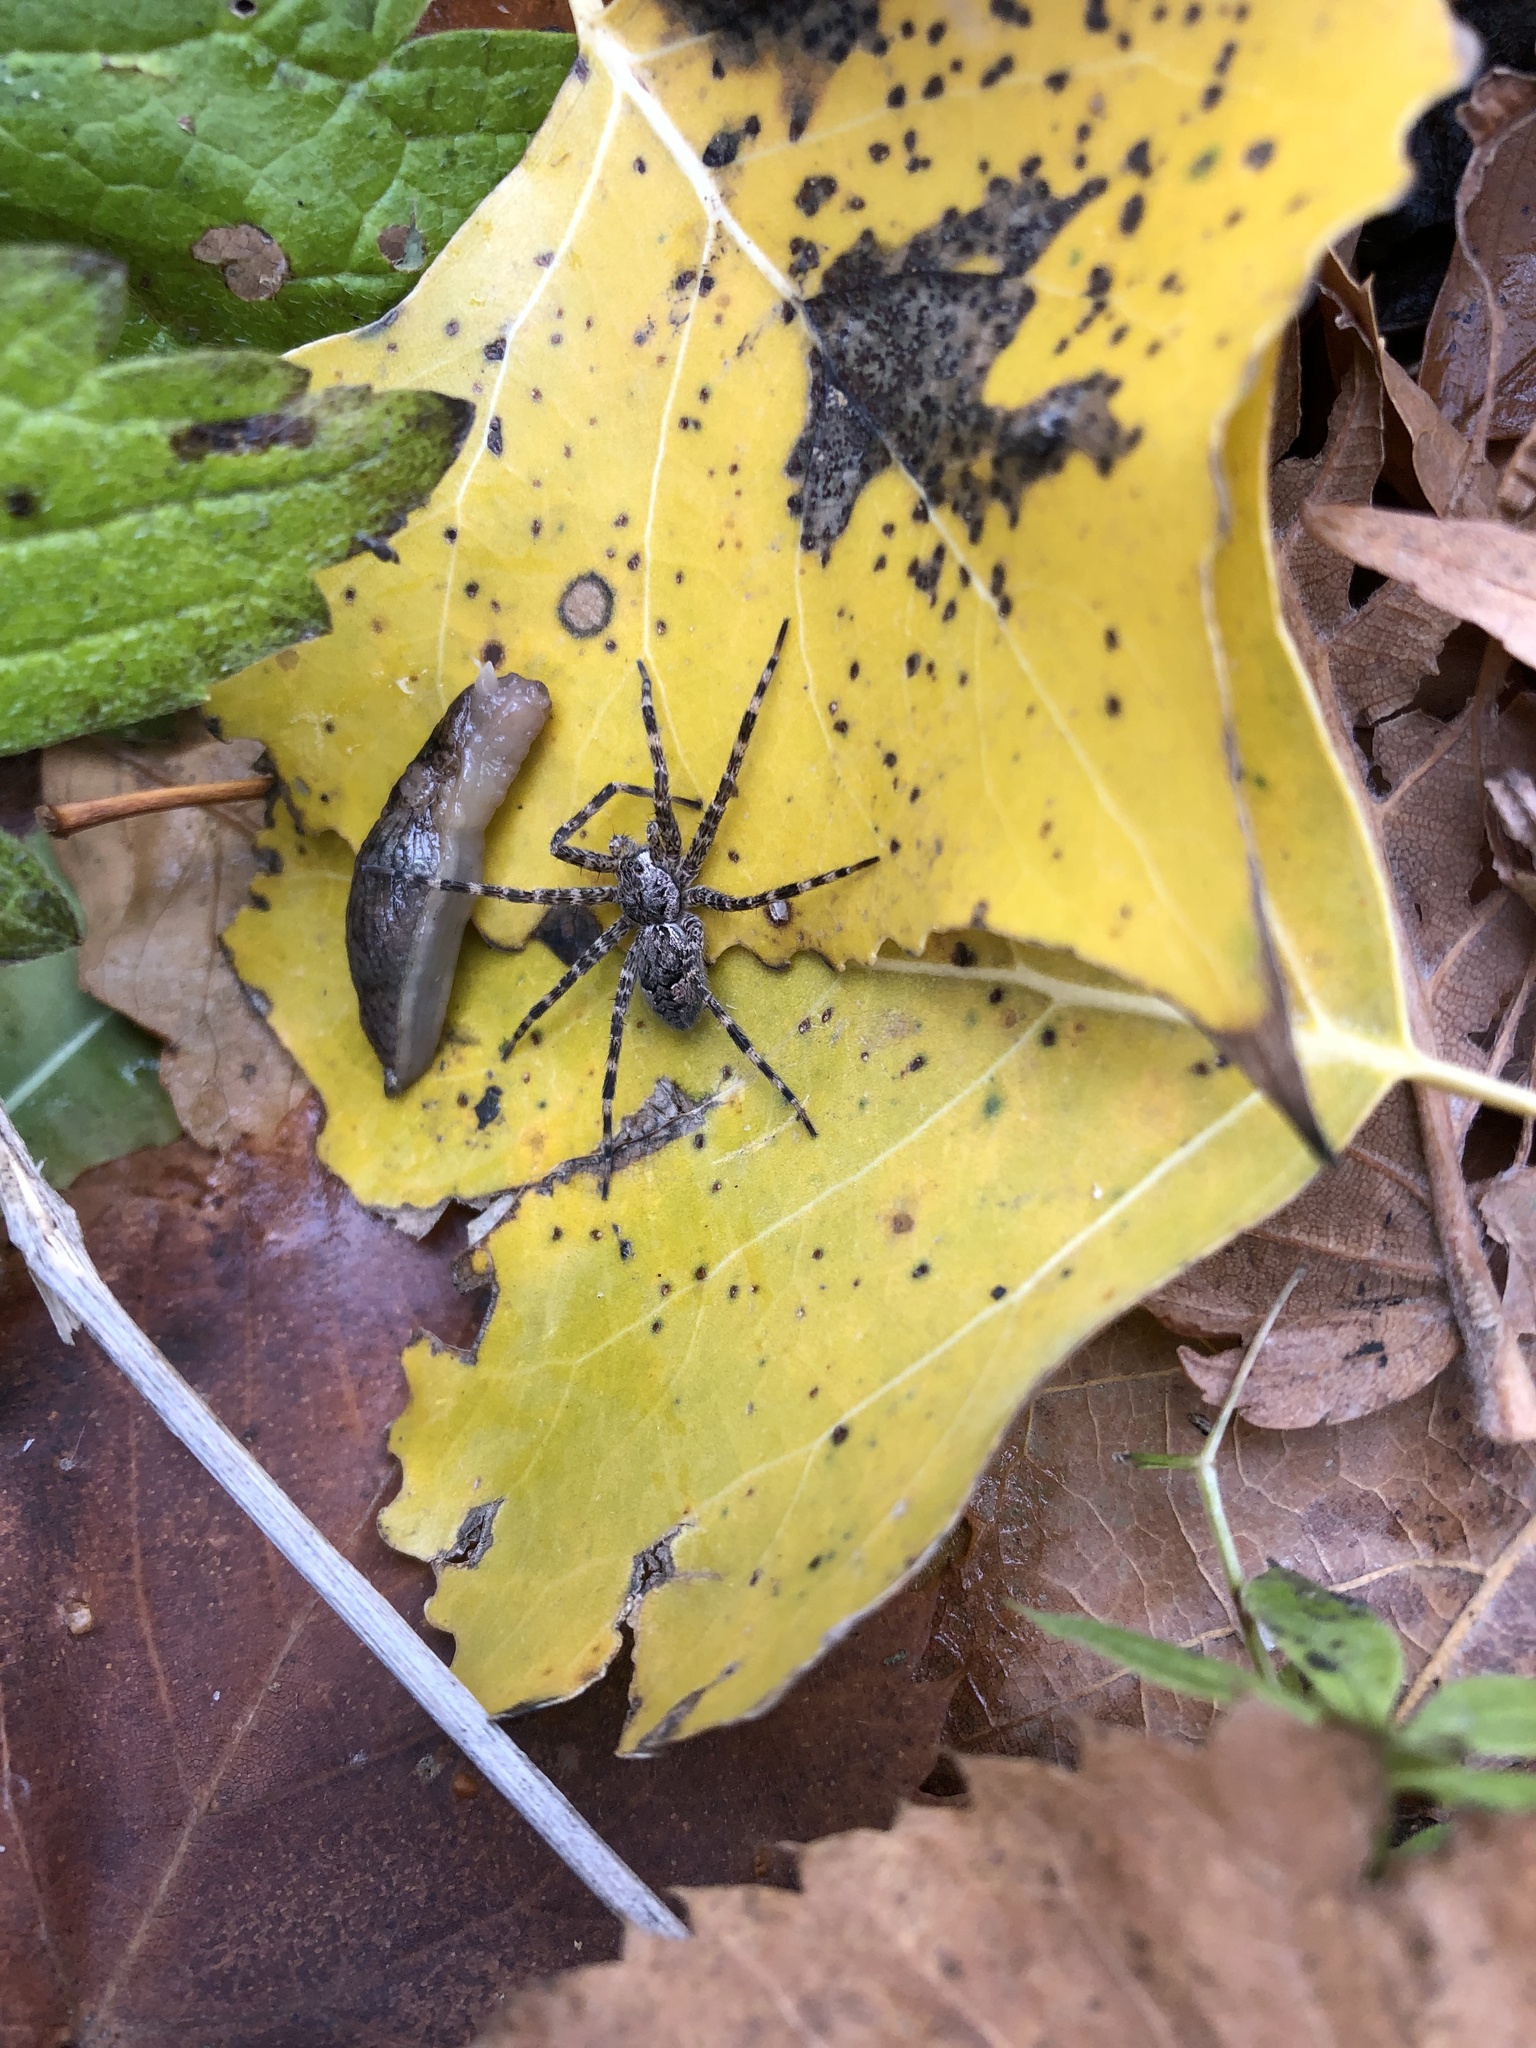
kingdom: Animalia
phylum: Arthropoda
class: Arachnida
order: Araneae
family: Pisauridae
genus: Dolomedes
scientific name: Dolomedes tenebrosus
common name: Dark fishing spider
